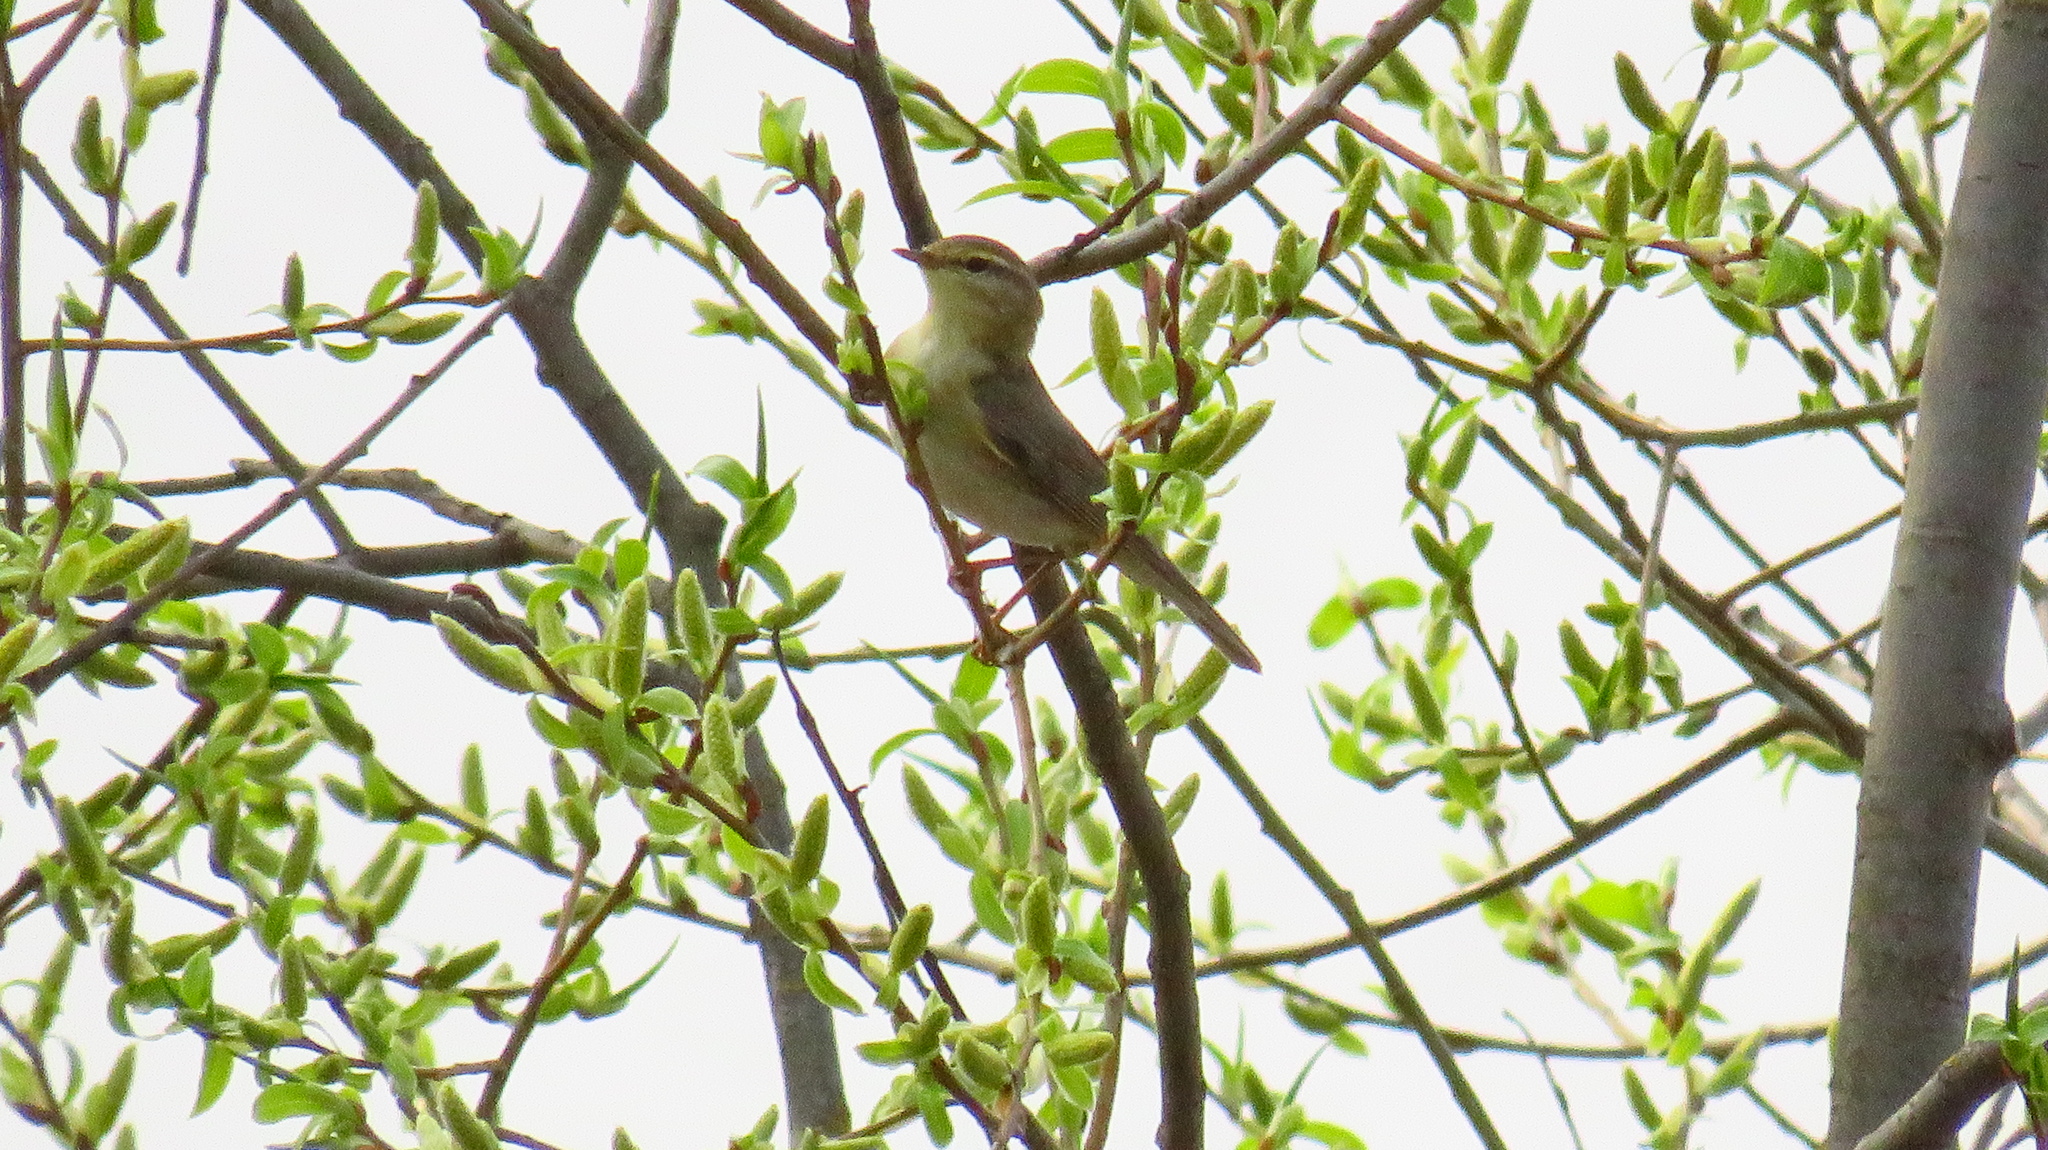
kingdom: Animalia
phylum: Chordata
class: Aves
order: Passeriformes
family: Phylloscopidae
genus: Phylloscopus
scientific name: Phylloscopus trochilus
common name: Willow warbler
